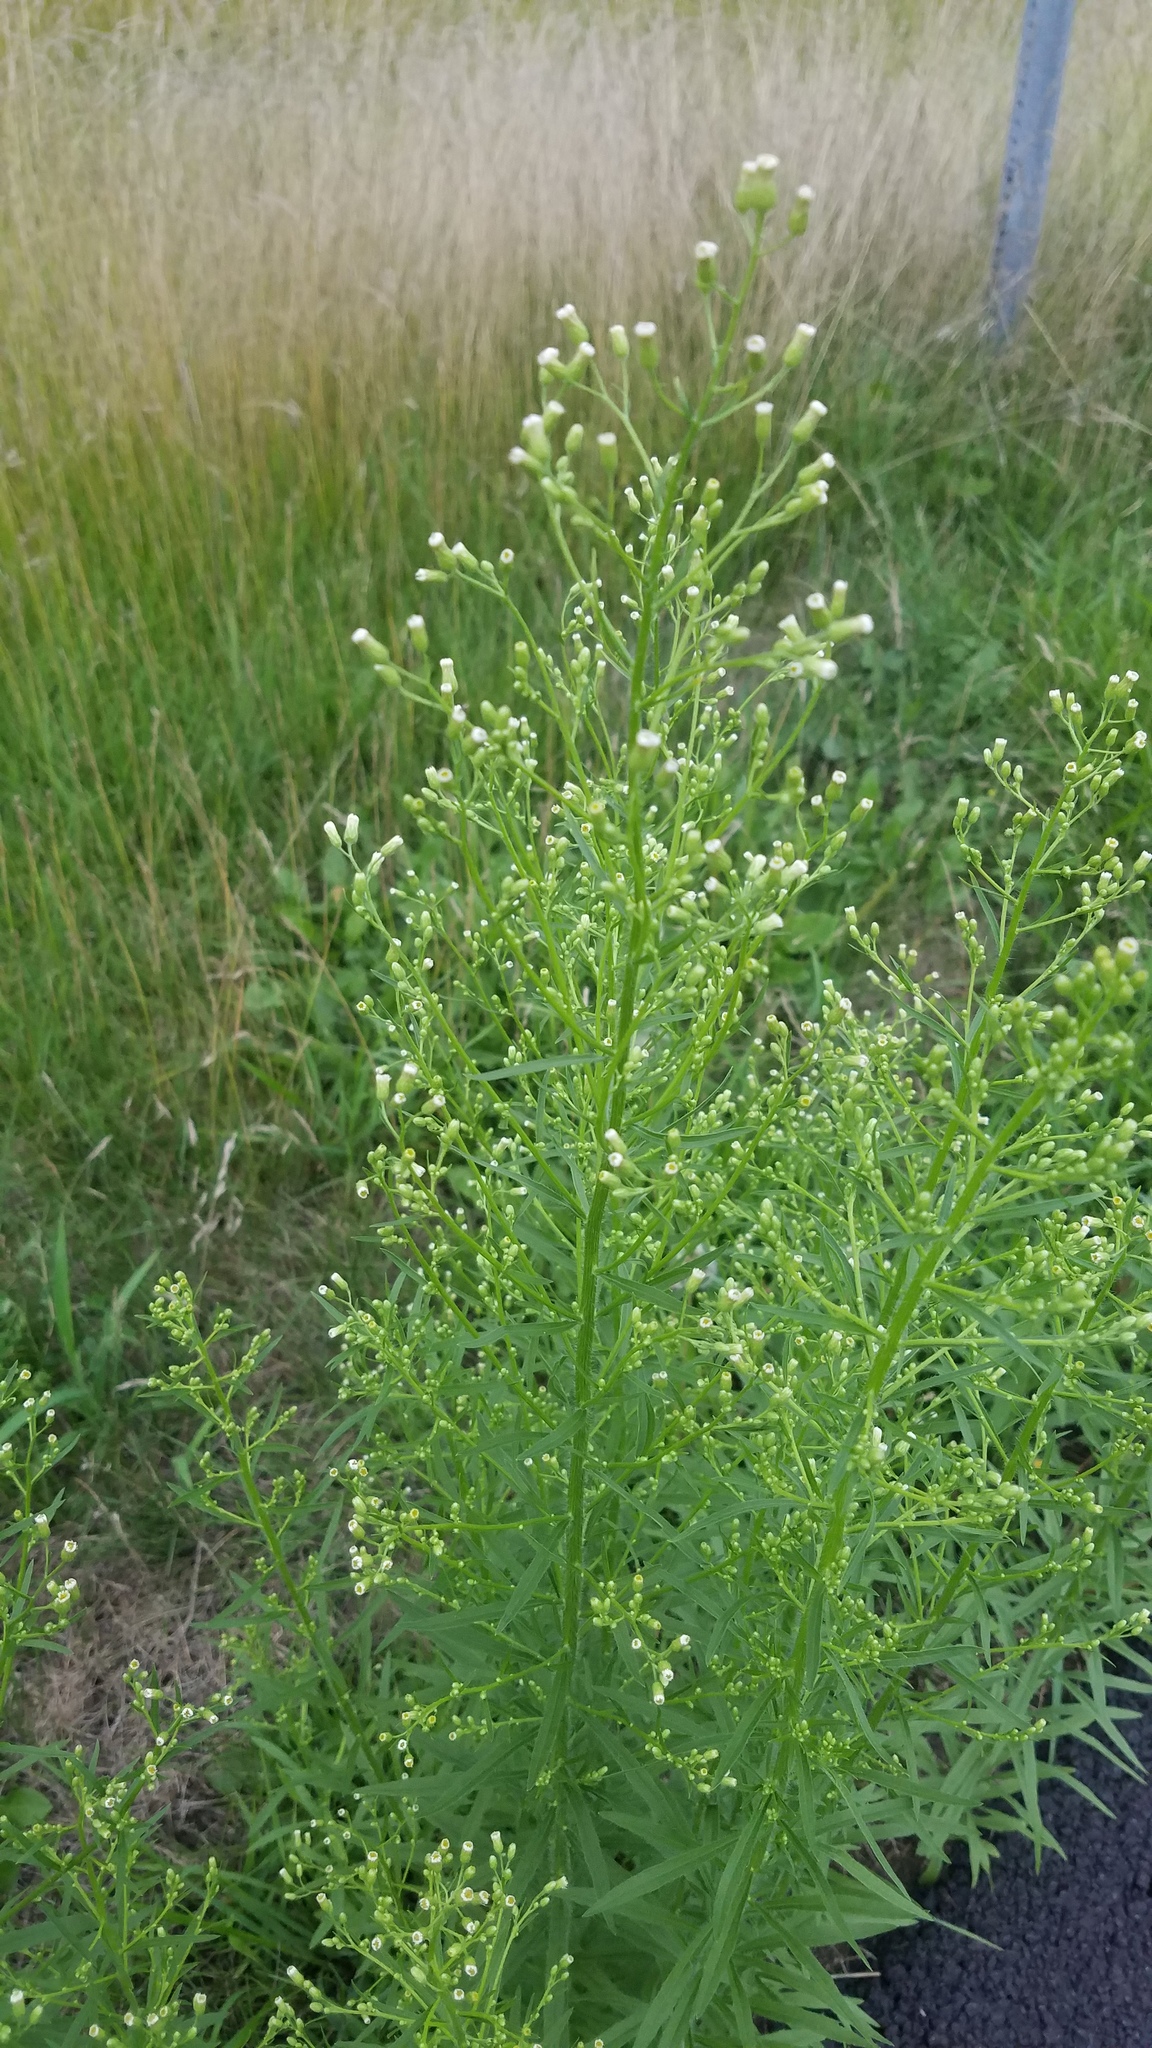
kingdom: Plantae
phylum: Tracheophyta
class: Magnoliopsida
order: Asterales
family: Asteraceae
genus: Erigeron
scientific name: Erigeron canadensis
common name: Canadian fleabane
